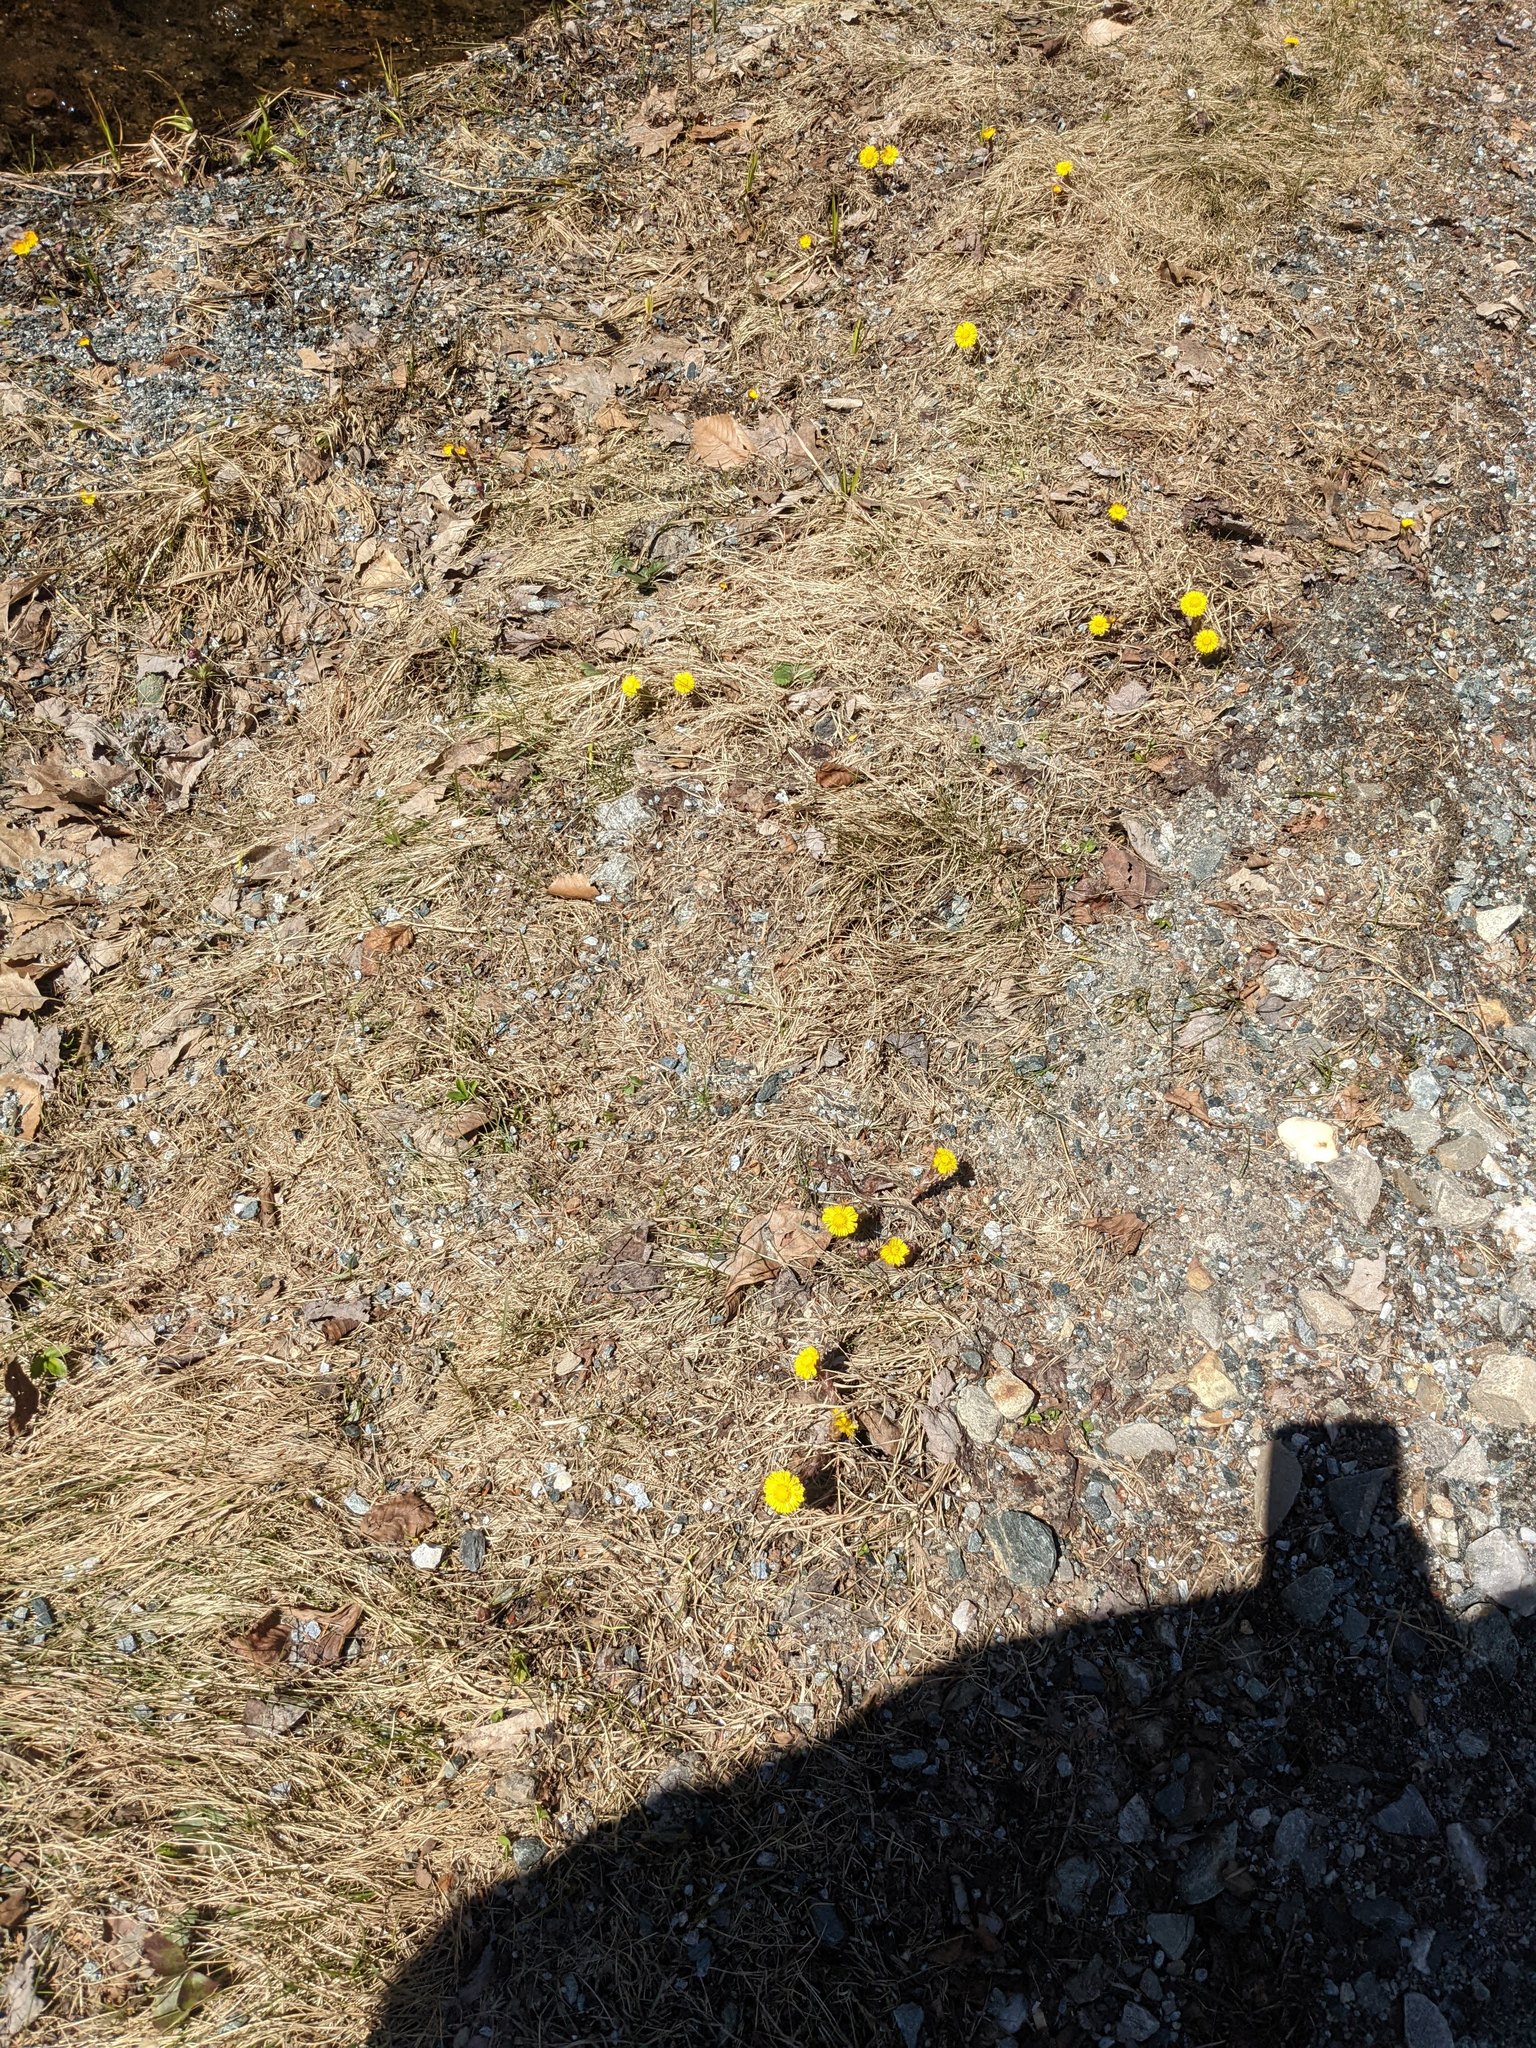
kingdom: Plantae
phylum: Tracheophyta
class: Magnoliopsida
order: Asterales
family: Asteraceae
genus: Tussilago
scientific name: Tussilago farfara
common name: Coltsfoot
